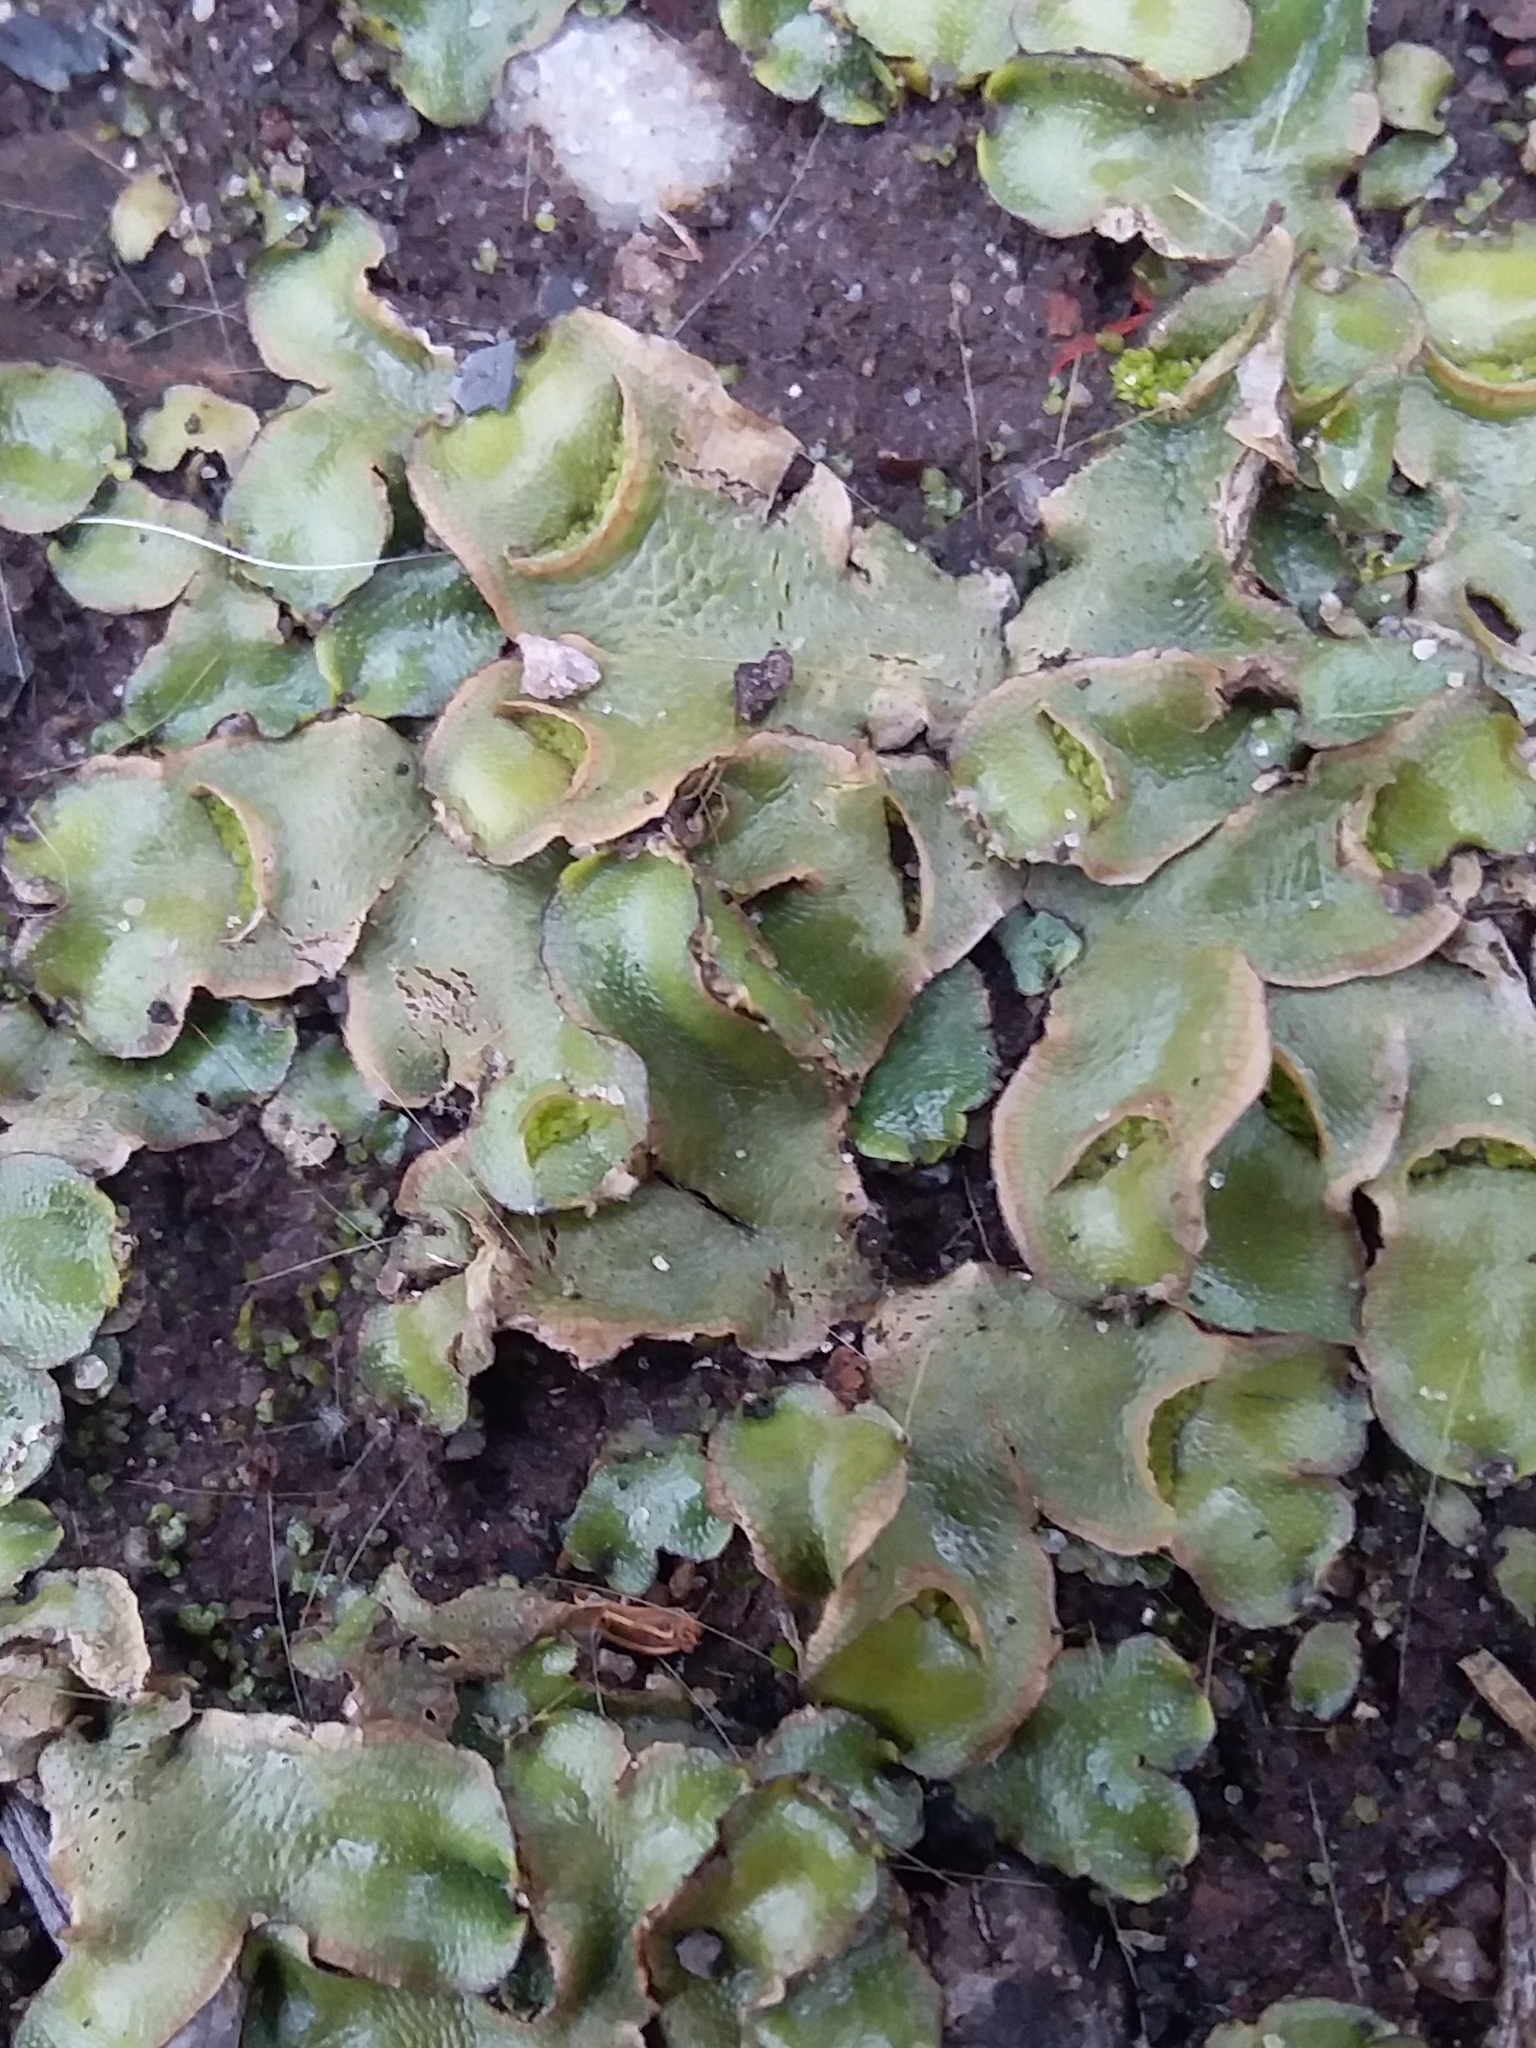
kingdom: Plantae
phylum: Marchantiophyta
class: Marchantiopsida
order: Lunulariales
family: Lunulariaceae
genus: Lunularia
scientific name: Lunularia cruciata
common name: Crescent-cup liverwort
